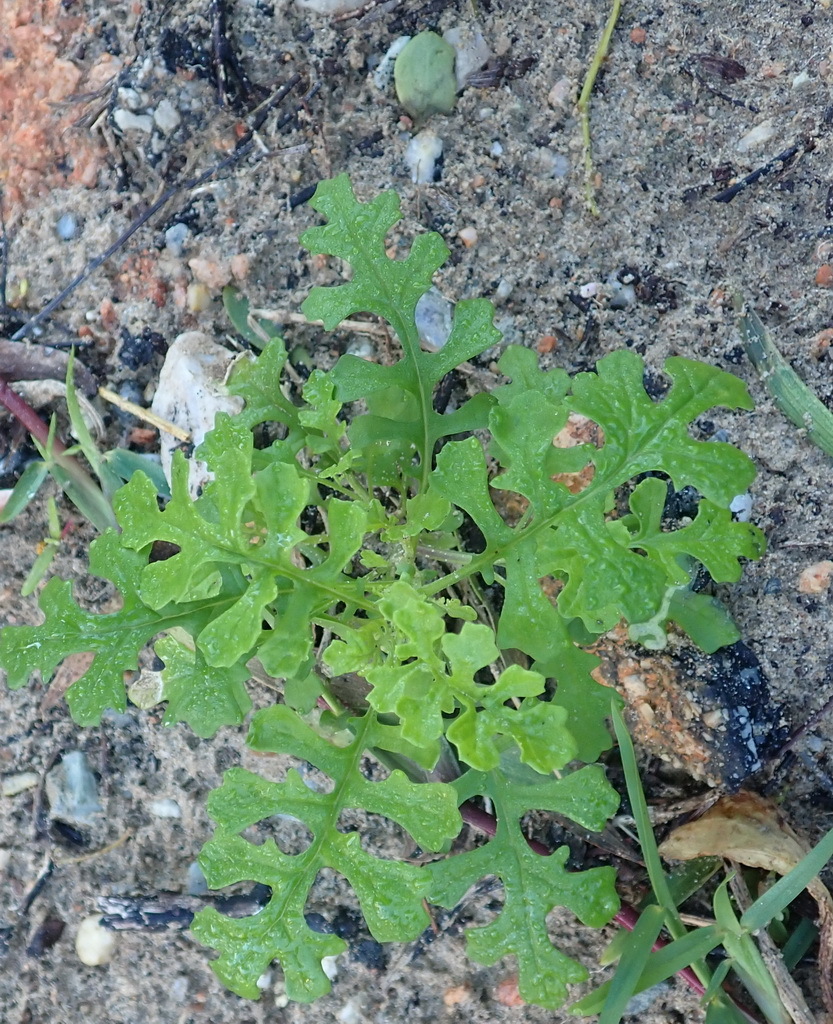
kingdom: Plantae
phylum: Tracheophyta
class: Magnoliopsida
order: Asterales
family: Asteraceae
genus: Senecio
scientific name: Senecio elegans
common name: Purple groundsel
